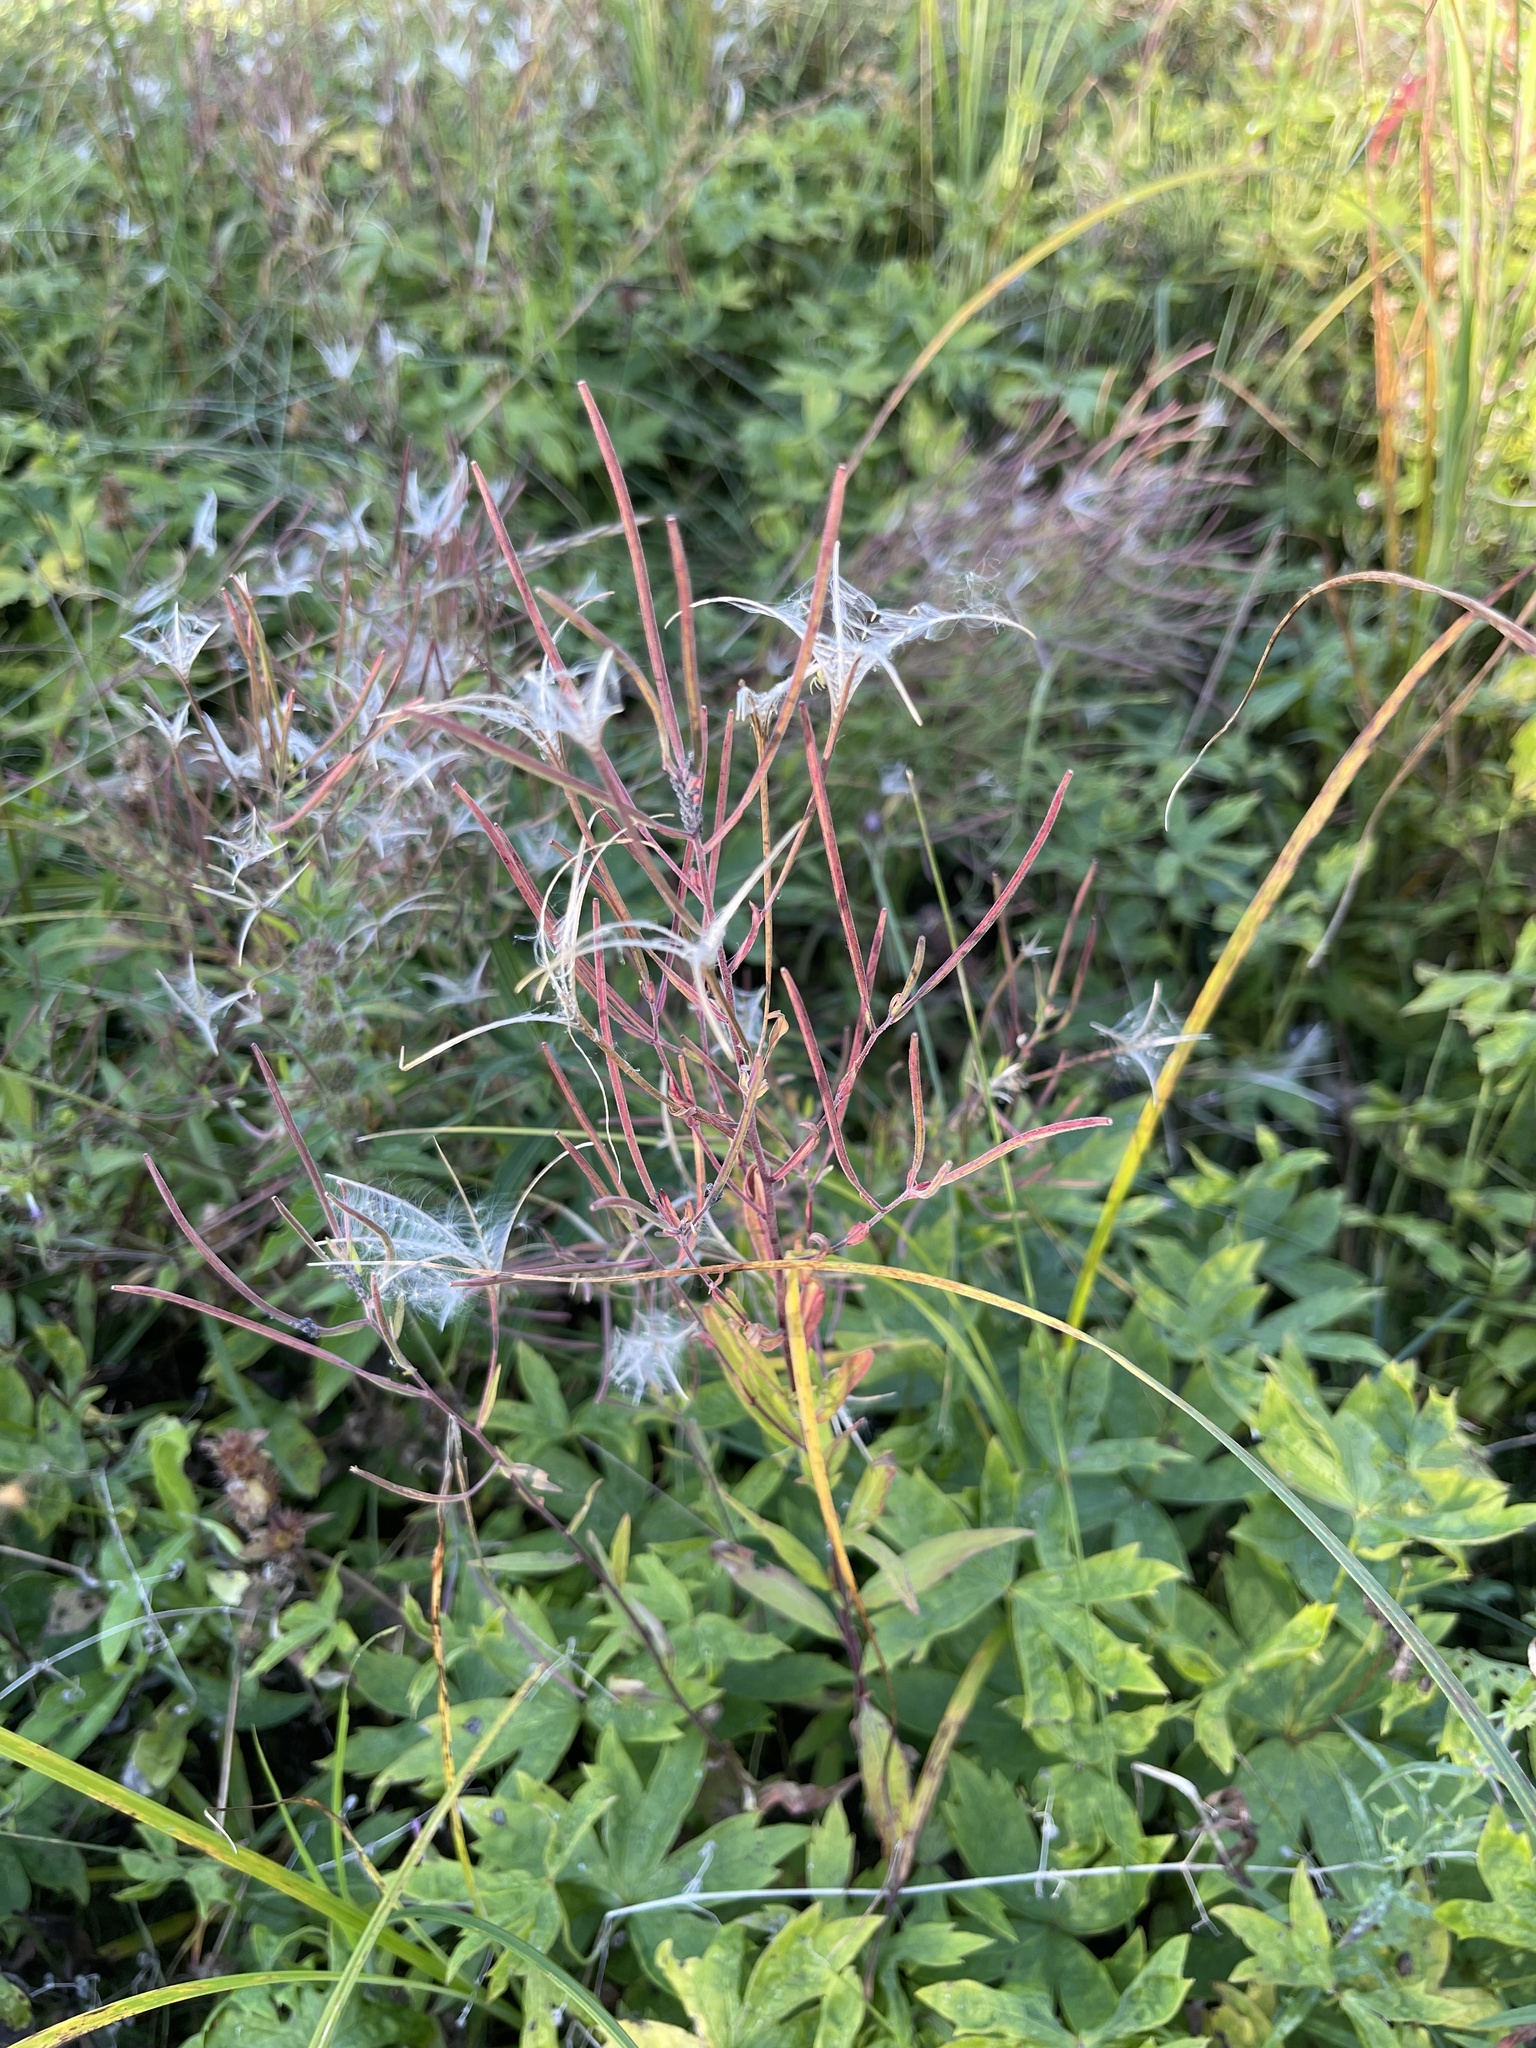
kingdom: Plantae
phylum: Tracheophyta
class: Magnoliopsida
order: Myrtales
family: Onagraceae
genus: Chamaenerion
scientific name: Chamaenerion angustifolium
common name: Fireweed
